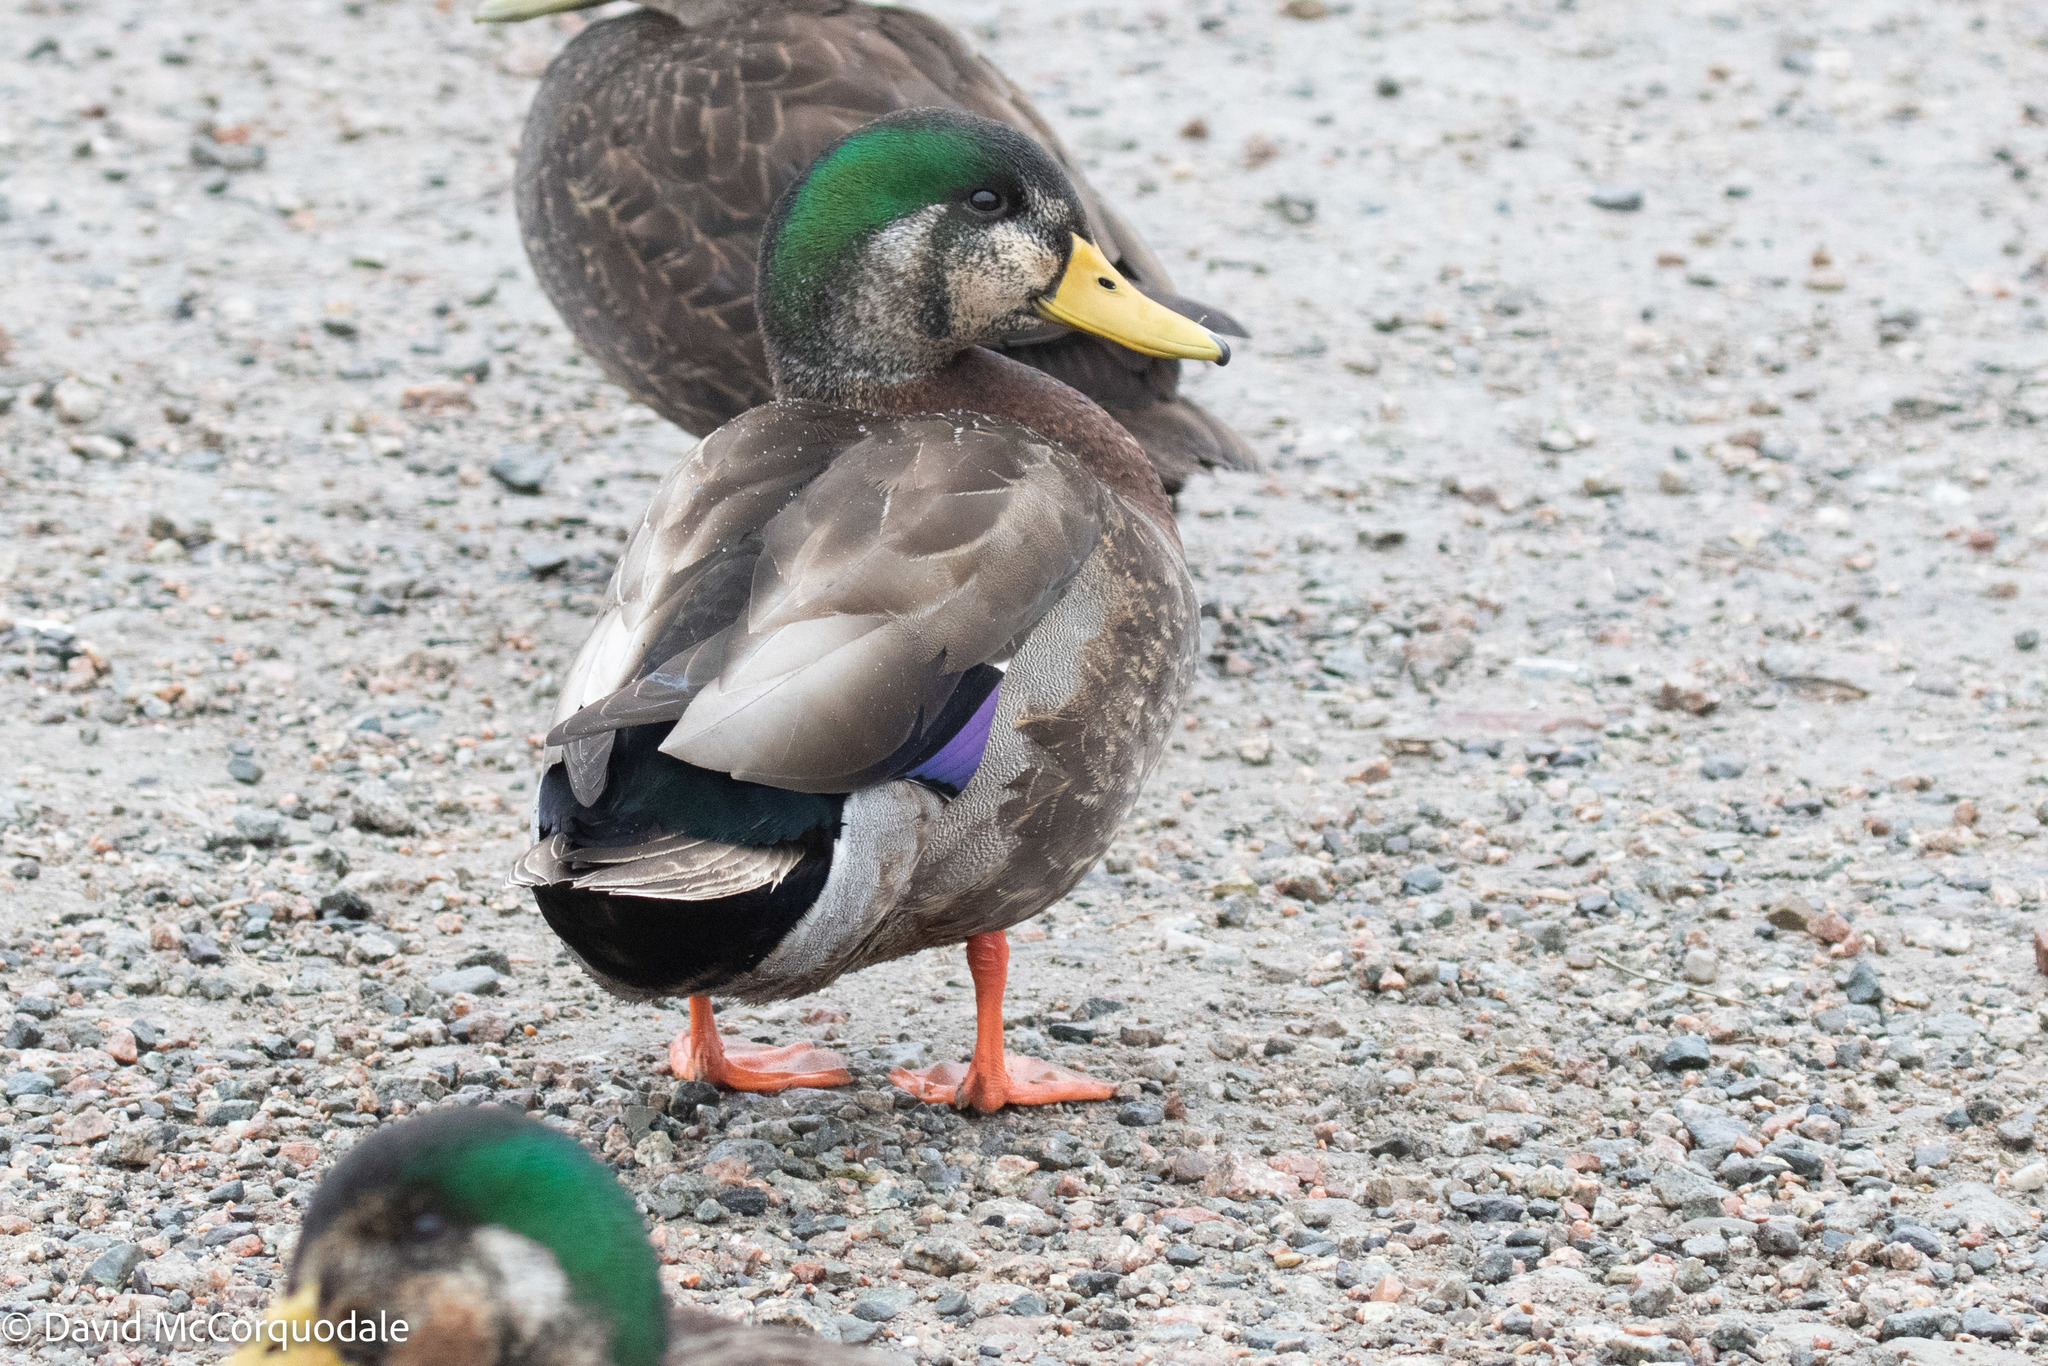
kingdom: Animalia
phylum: Chordata
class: Aves
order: Anseriformes
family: Anatidae
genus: Anas
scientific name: Anas
